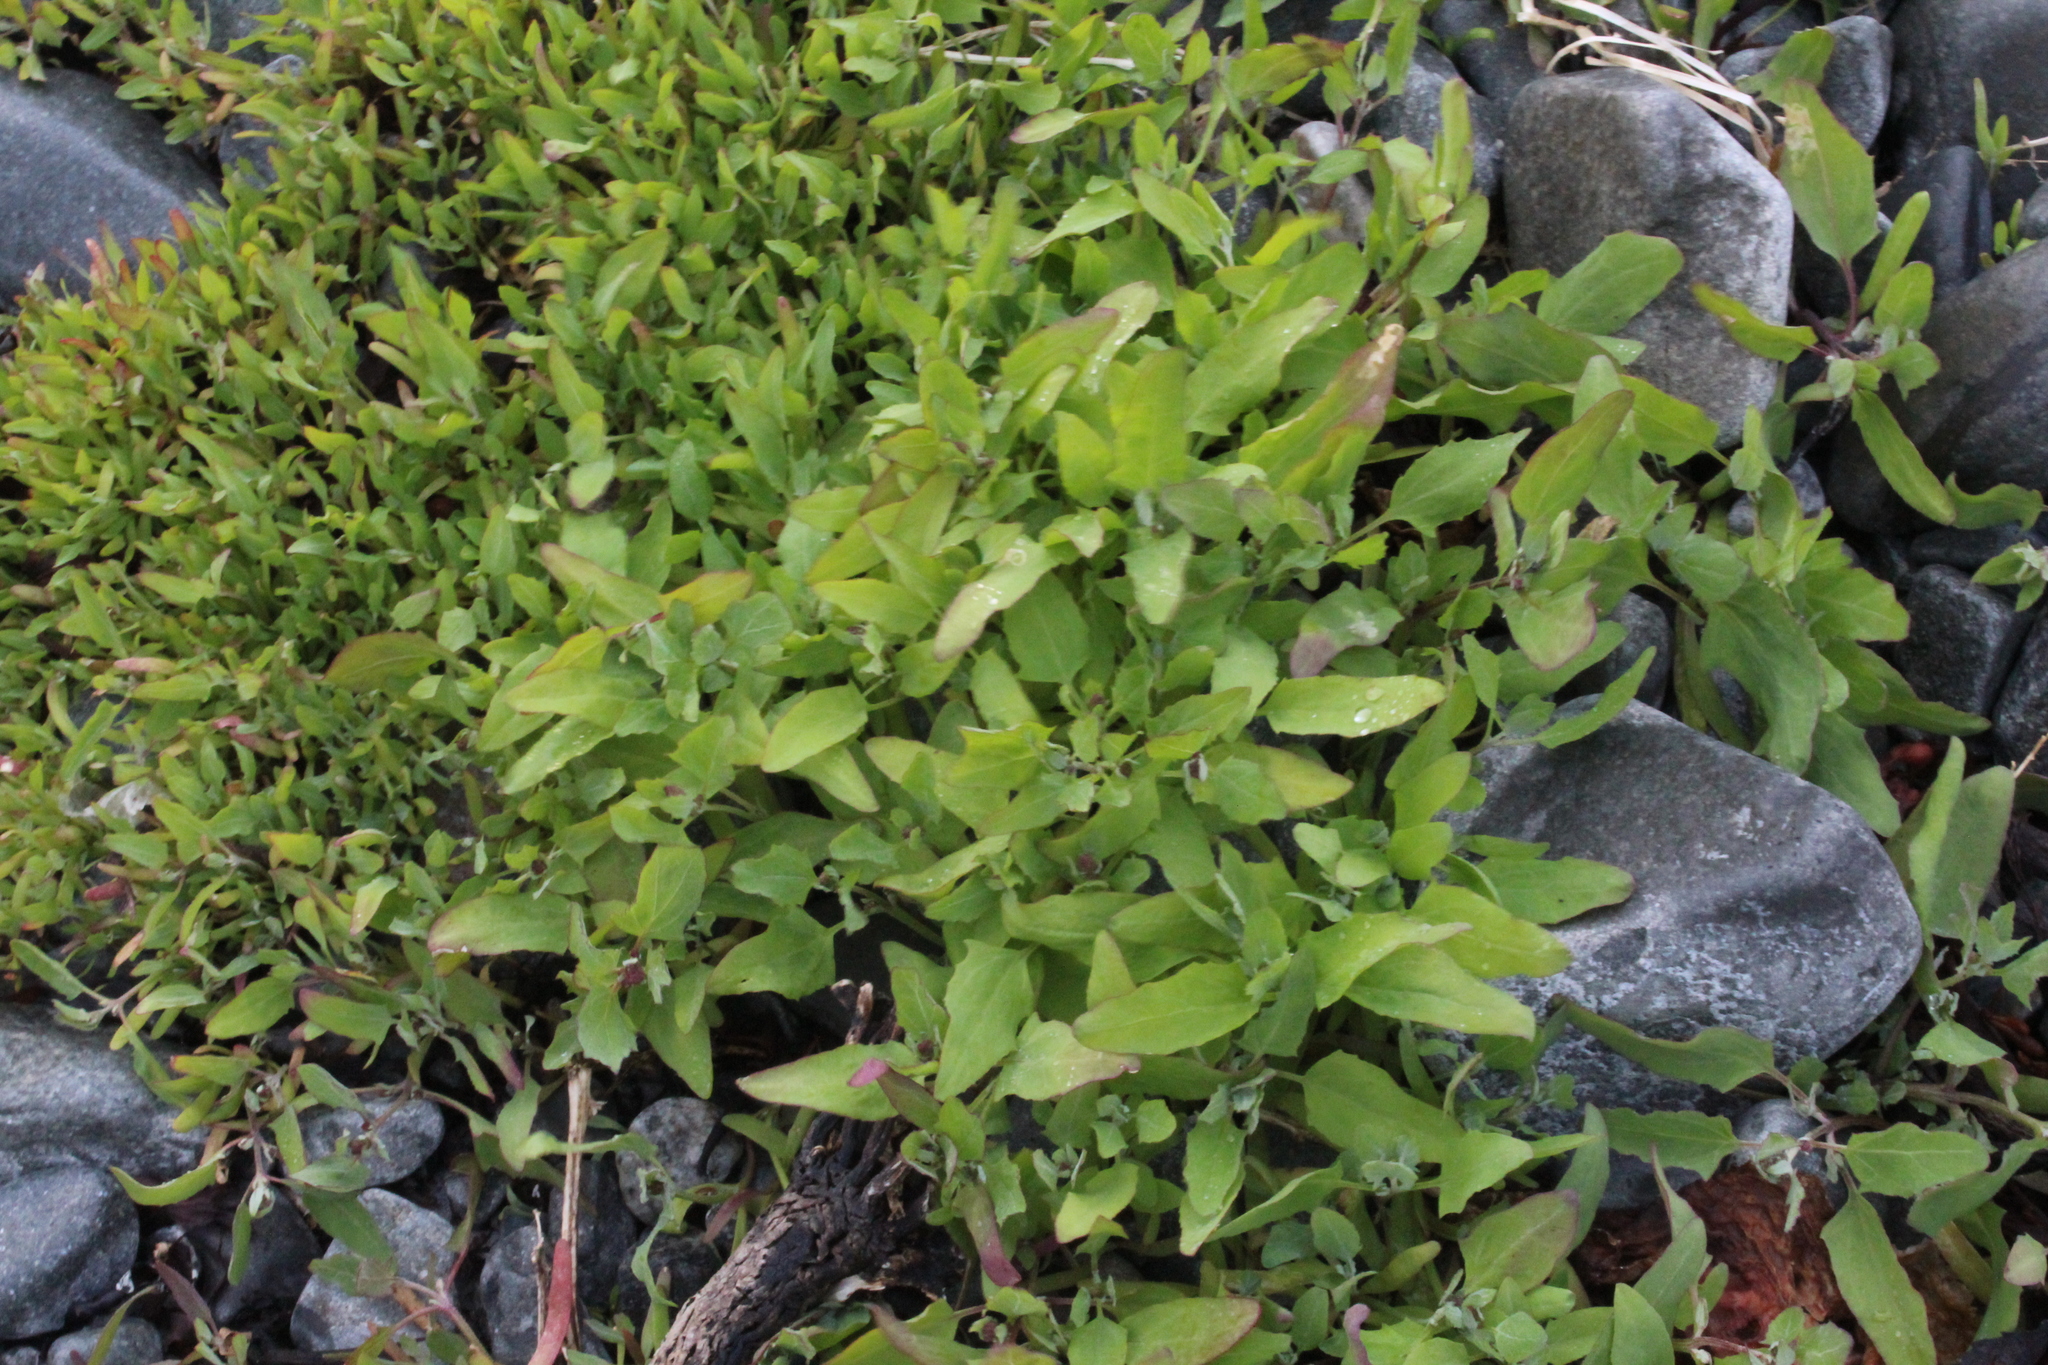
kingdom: Plantae
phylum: Tracheophyta
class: Magnoliopsida
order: Caryophyllales
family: Amaranthaceae
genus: Atriplex
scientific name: Atriplex nudicaulis
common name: Baltic orache
